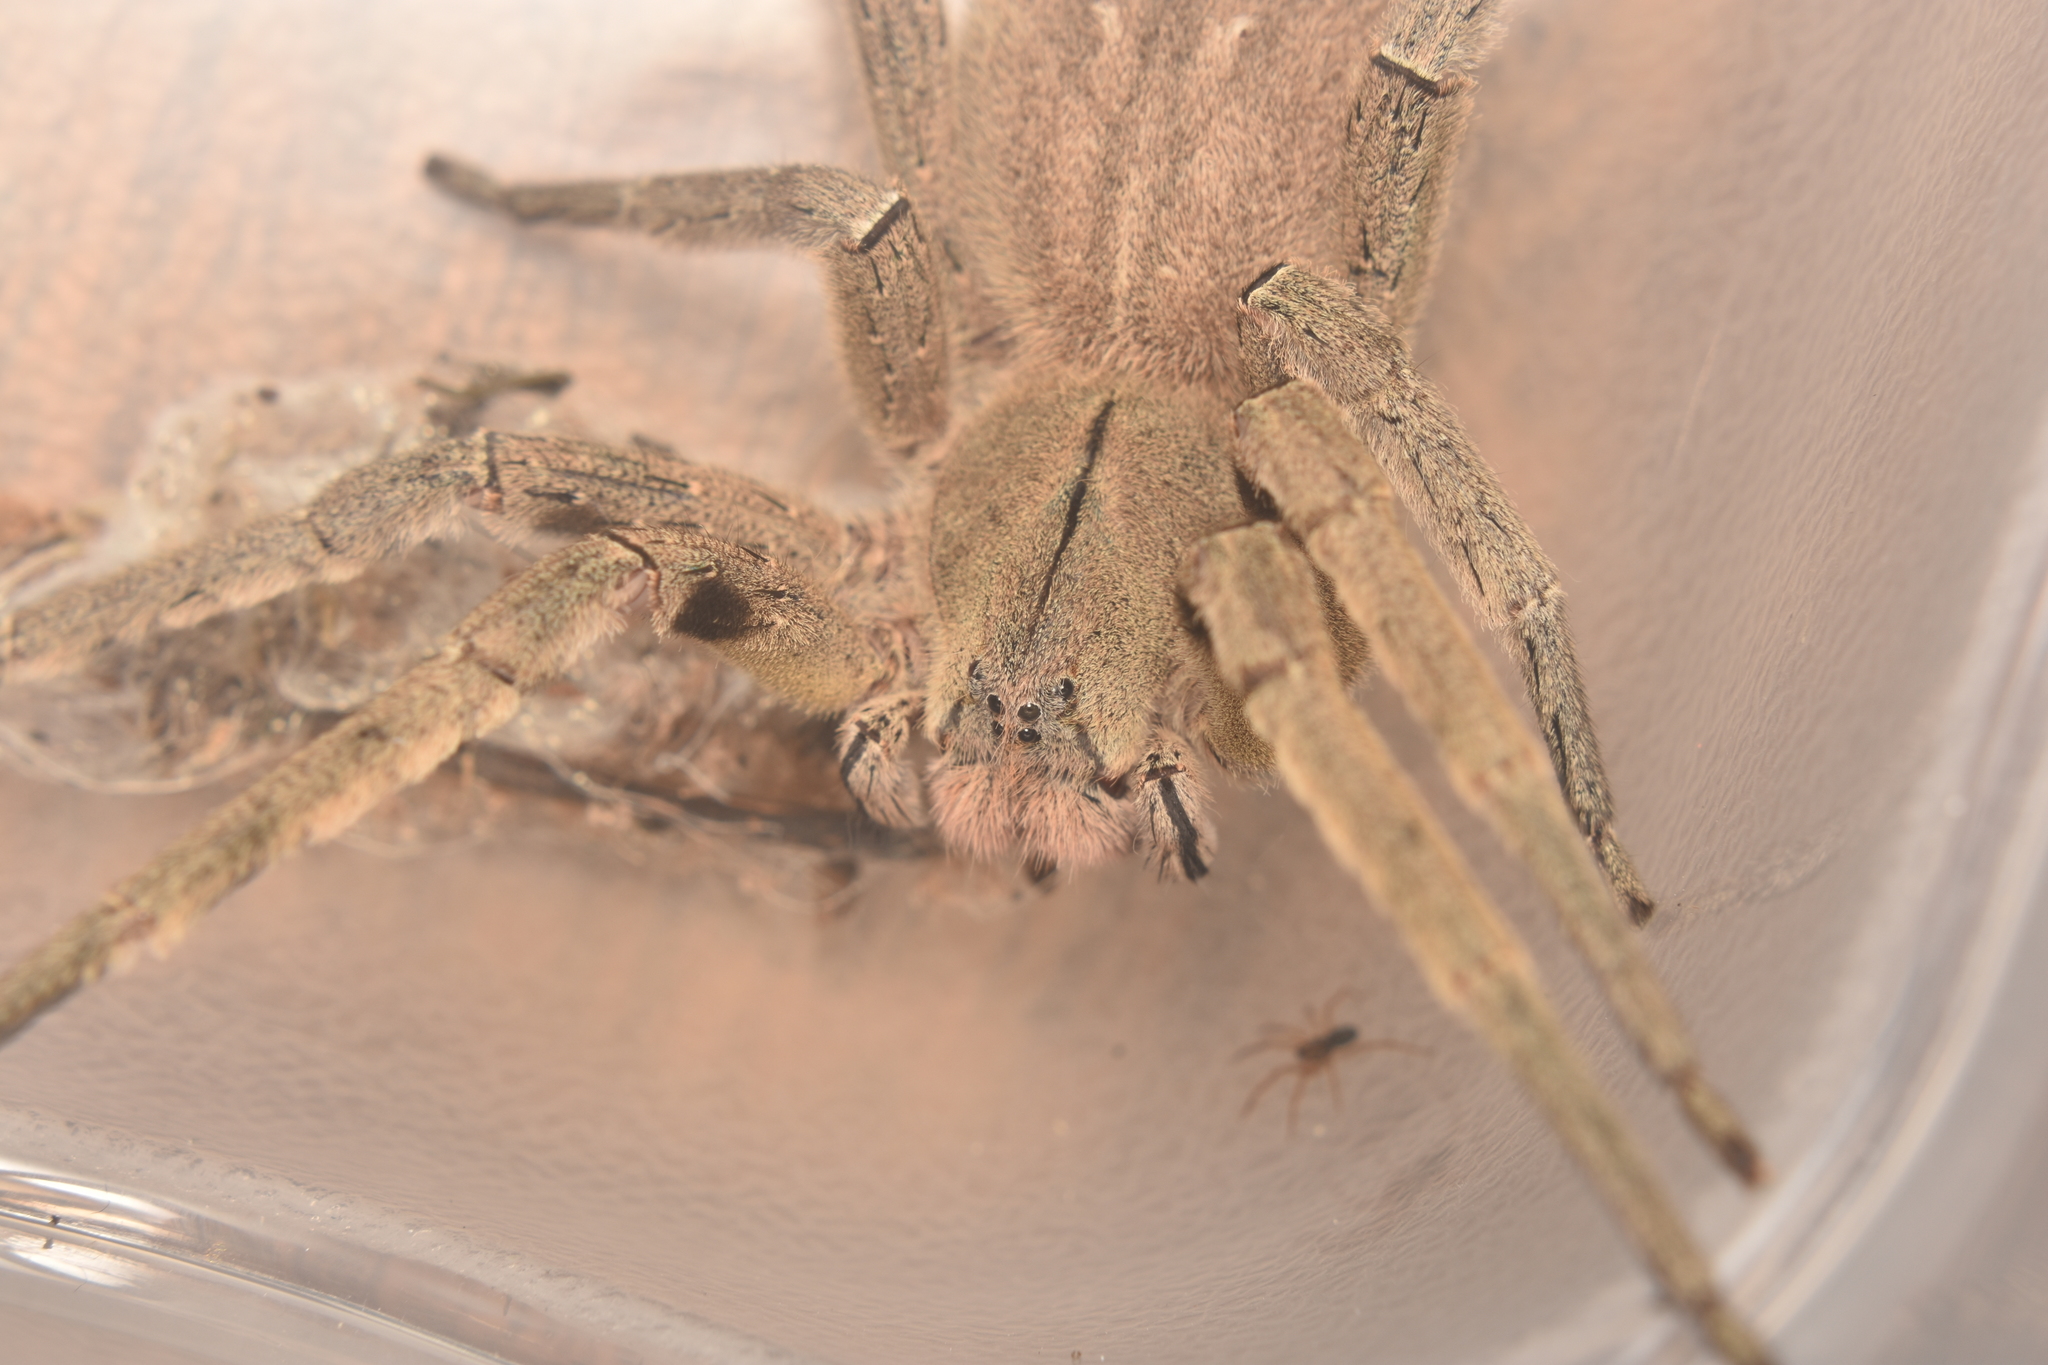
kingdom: Animalia
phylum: Arthropoda
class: Arachnida
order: Araneae
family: Ctenidae
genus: Phoneutria
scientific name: Phoneutria depilata
